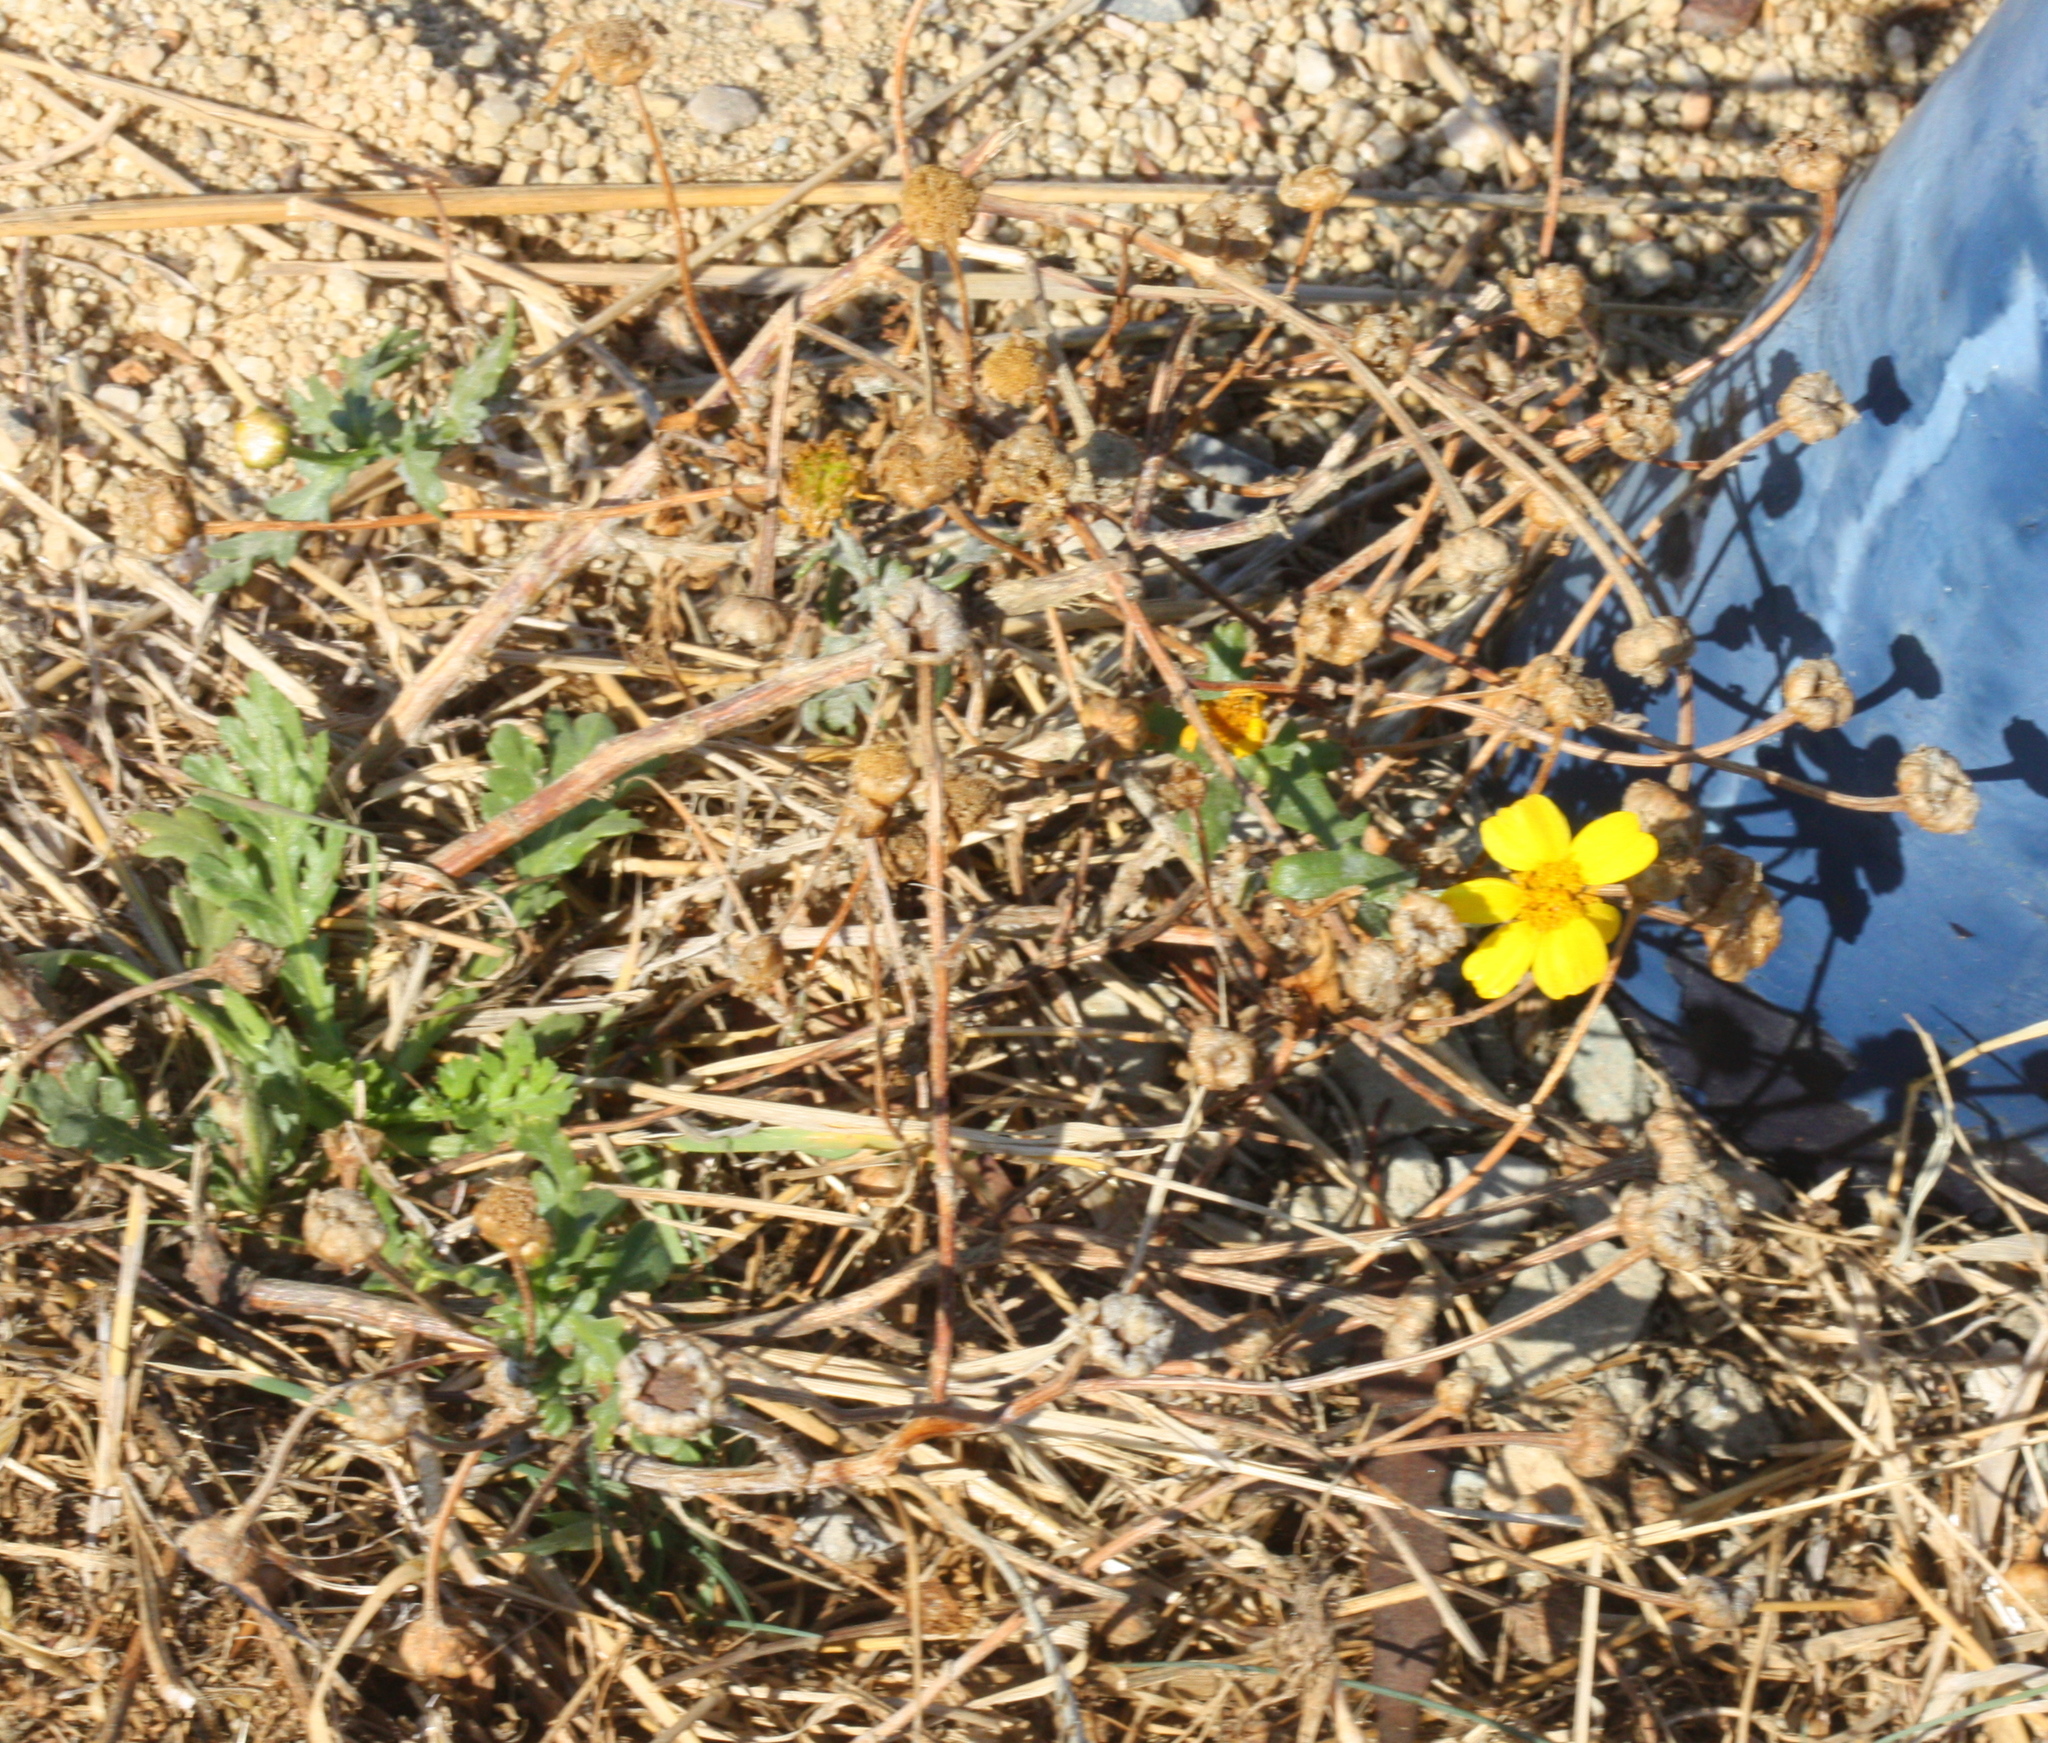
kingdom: Plantae
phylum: Tracheophyta
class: Magnoliopsida
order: Asterales
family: Asteraceae
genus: Glebionis
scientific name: Glebionis coronaria
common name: Crowndaisy
